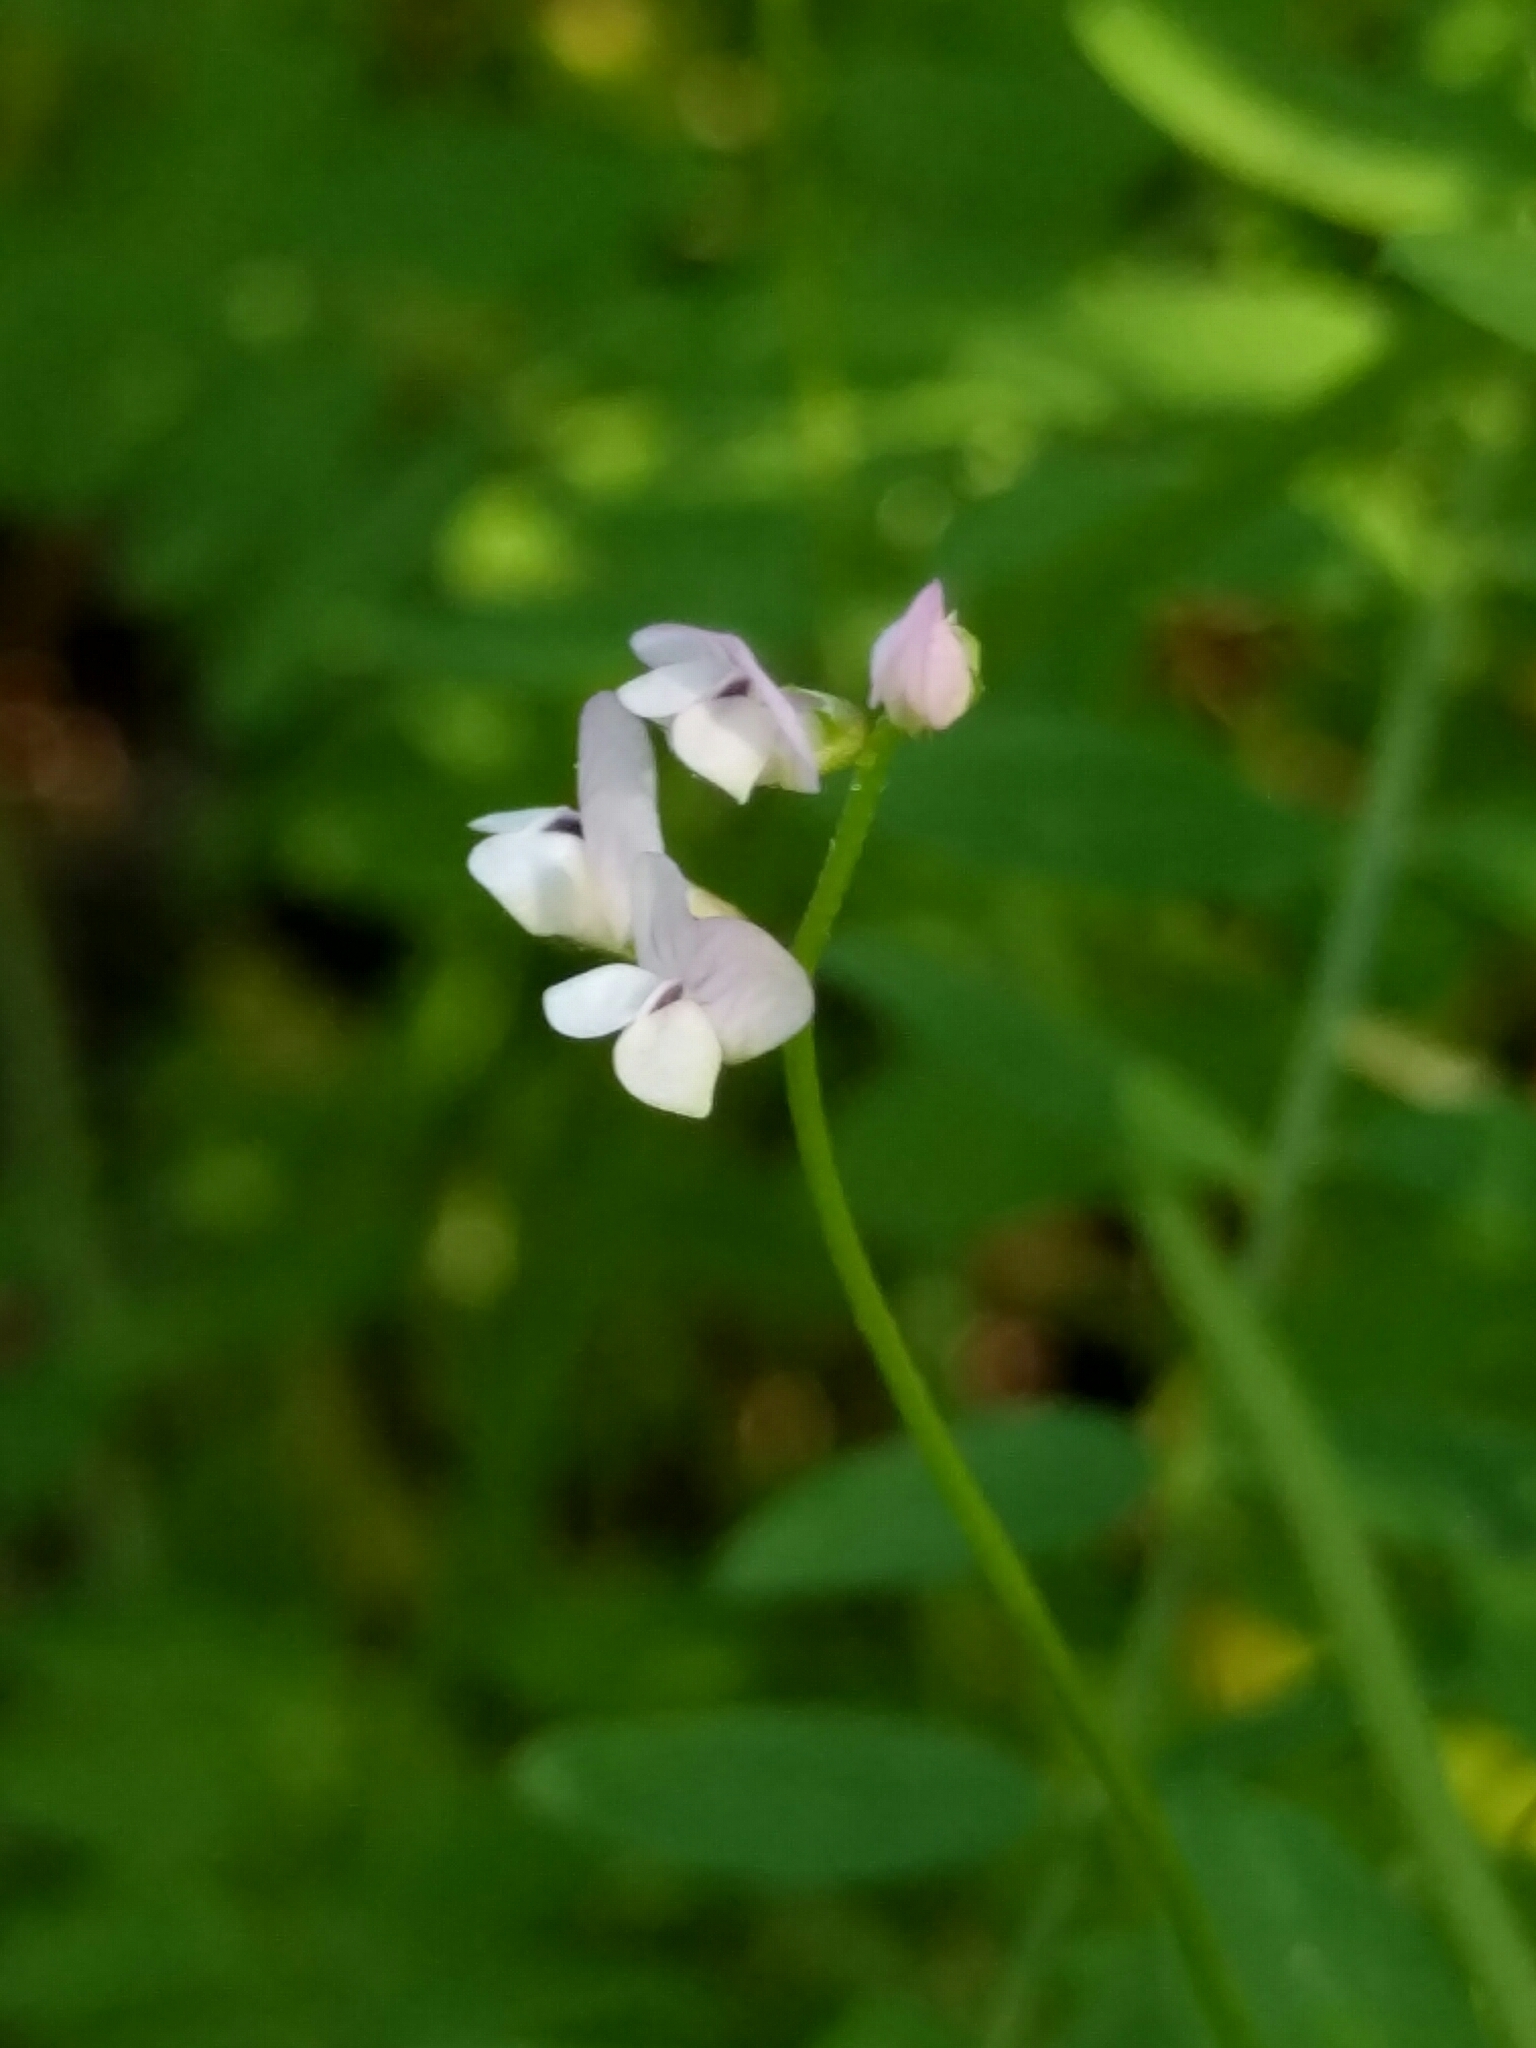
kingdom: Plantae
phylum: Tracheophyta
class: Magnoliopsida
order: Fabales
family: Fabaceae
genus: Vicia
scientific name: Vicia disperma
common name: European vetch
